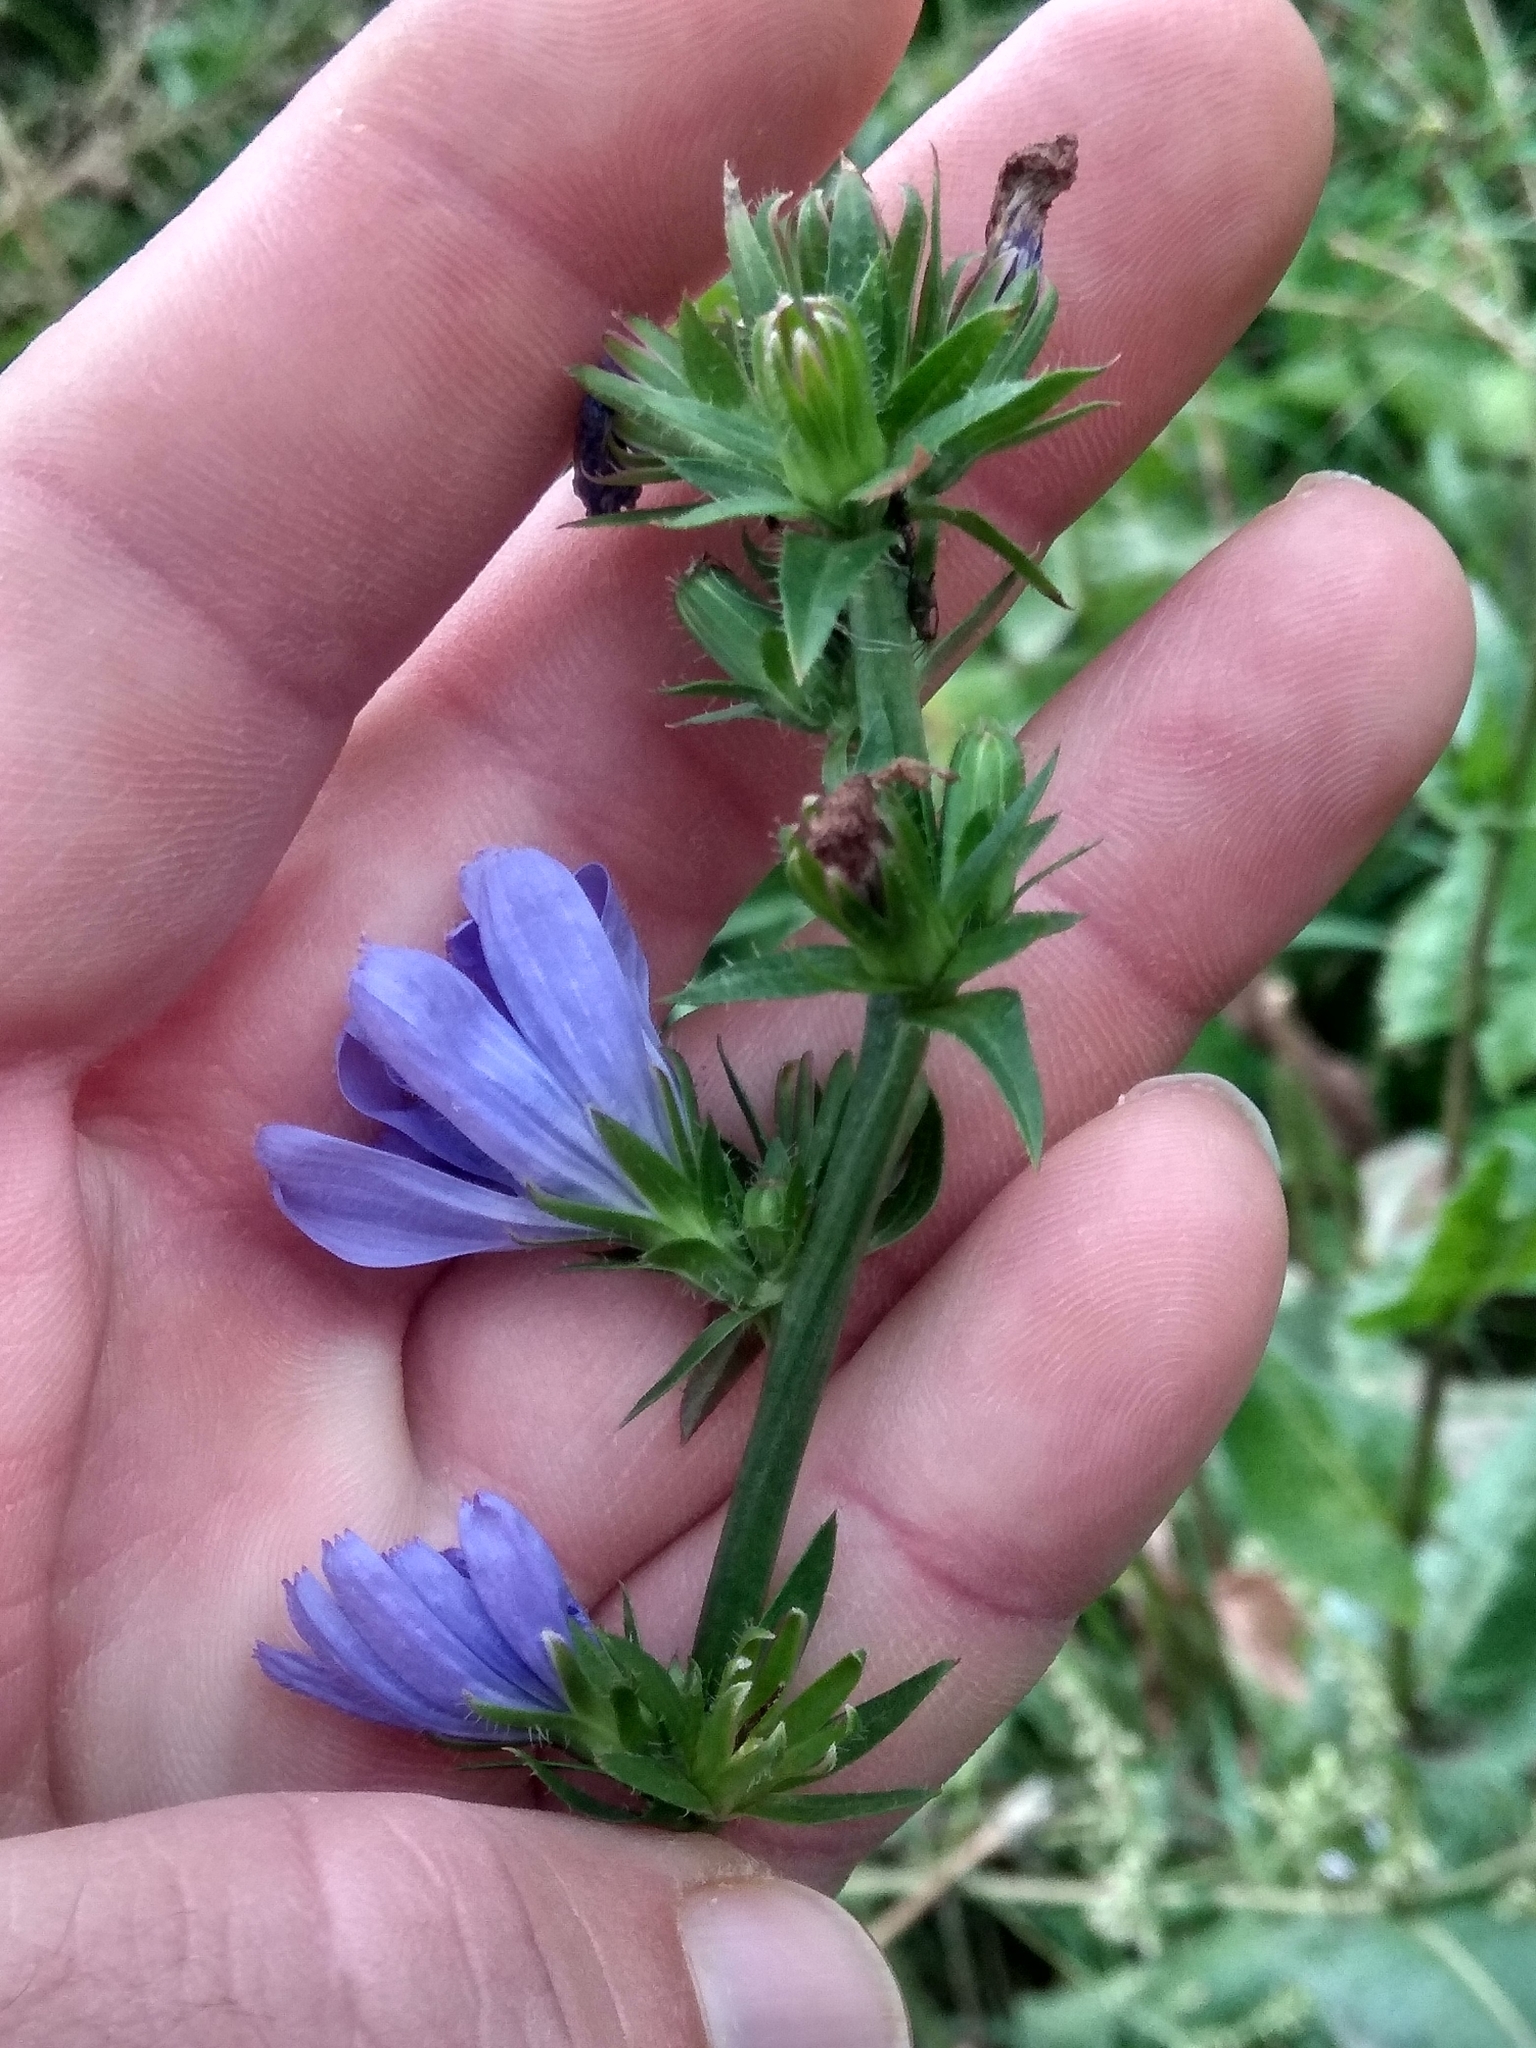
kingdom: Plantae
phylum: Tracheophyta
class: Magnoliopsida
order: Asterales
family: Asteraceae
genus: Cichorium
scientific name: Cichorium intybus
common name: Chicory
